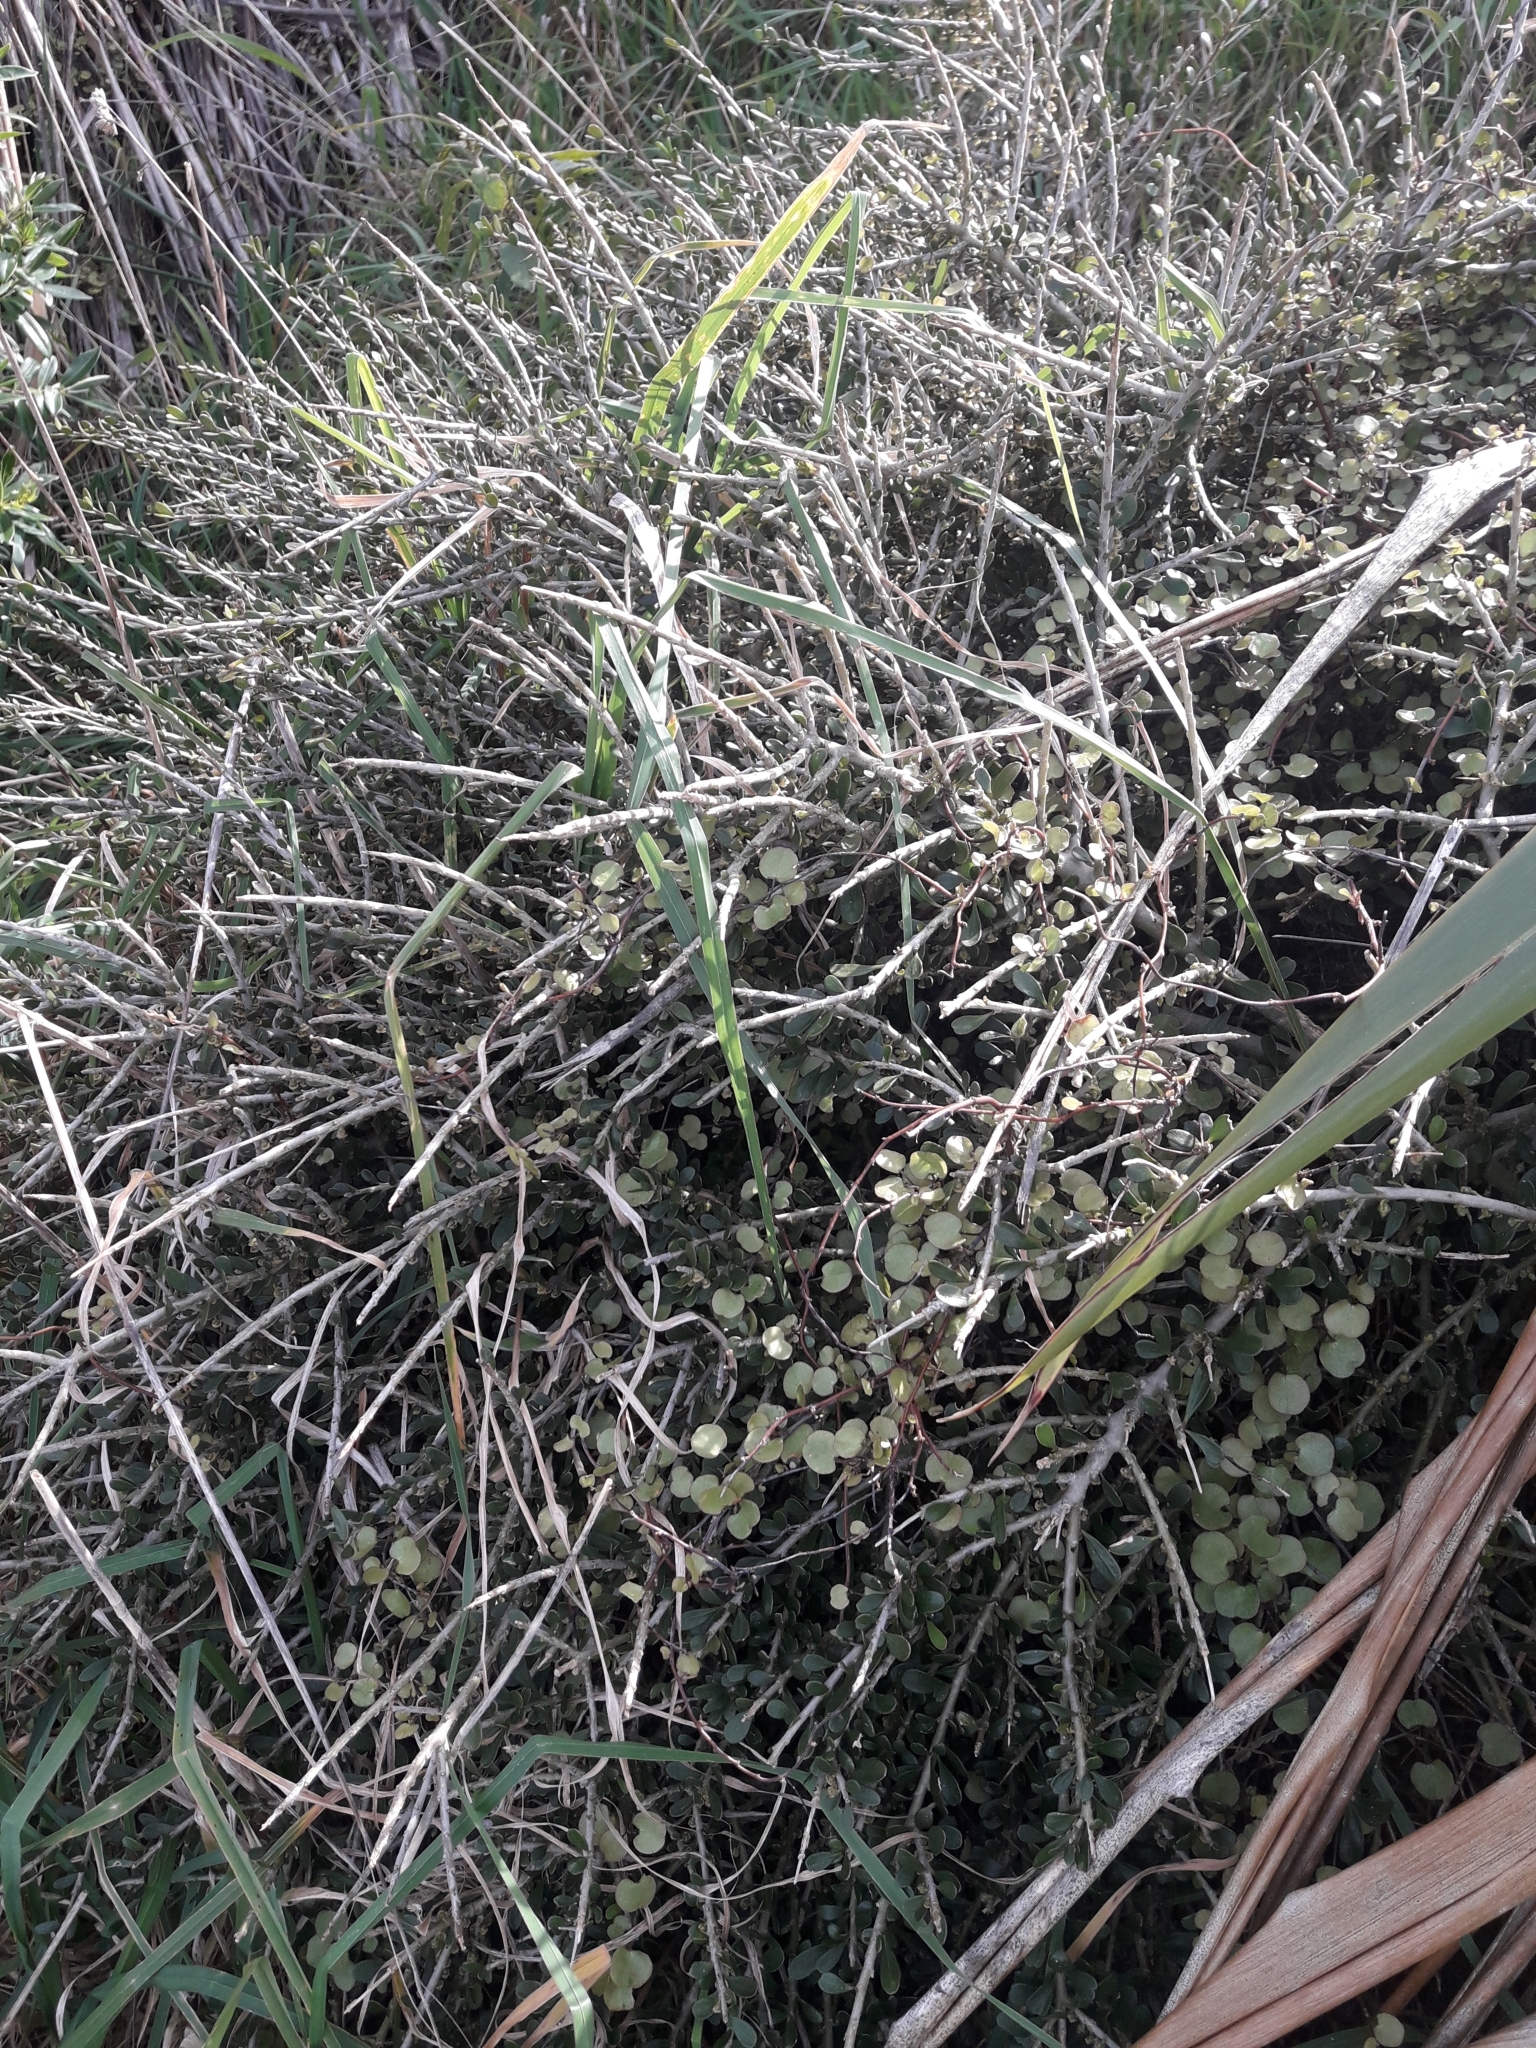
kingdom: Plantae
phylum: Tracheophyta
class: Magnoliopsida
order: Malpighiales
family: Violaceae
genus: Melicytus
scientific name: Melicytus crassifolius
